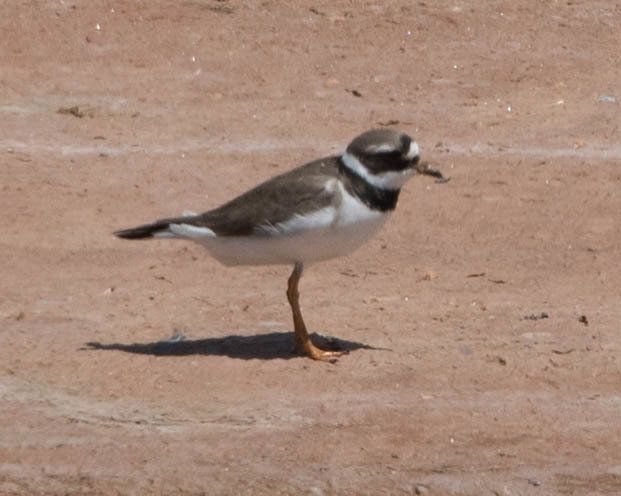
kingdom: Animalia
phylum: Chordata
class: Aves
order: Charadriiformes
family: Charadriidae
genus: Charadrius
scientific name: Charadrius hiaticula
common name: Common ringed plover
